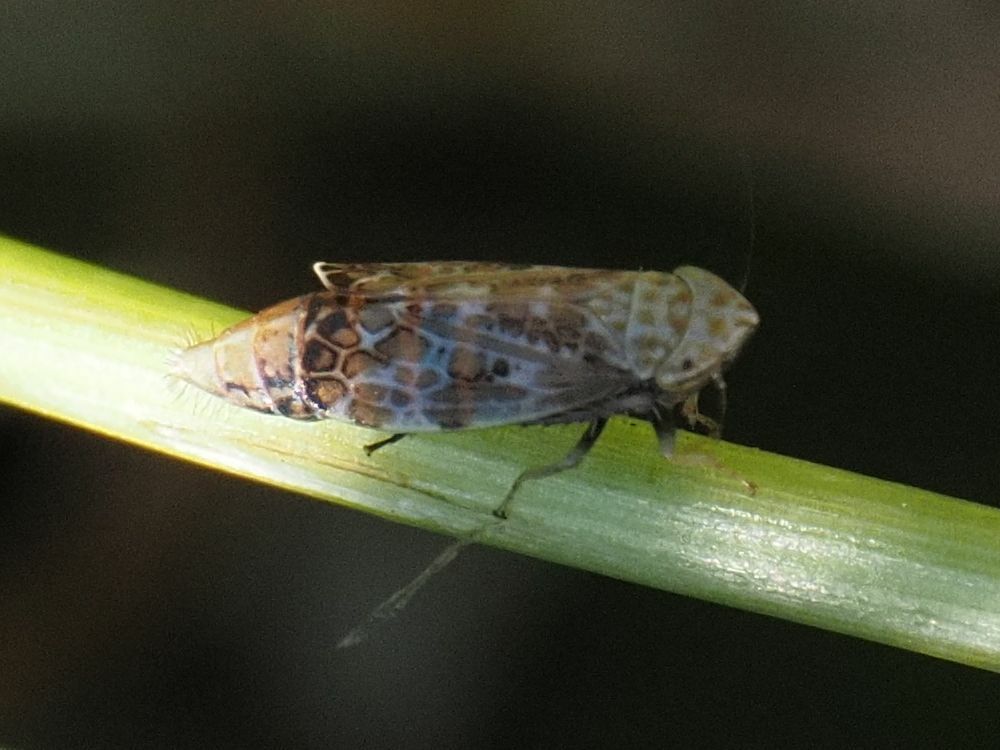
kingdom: Animalia
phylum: Arthropoda
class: Insecta
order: Hemiptera
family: Cicadellidae
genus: Errastunus
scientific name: Errastunus ocellaris
